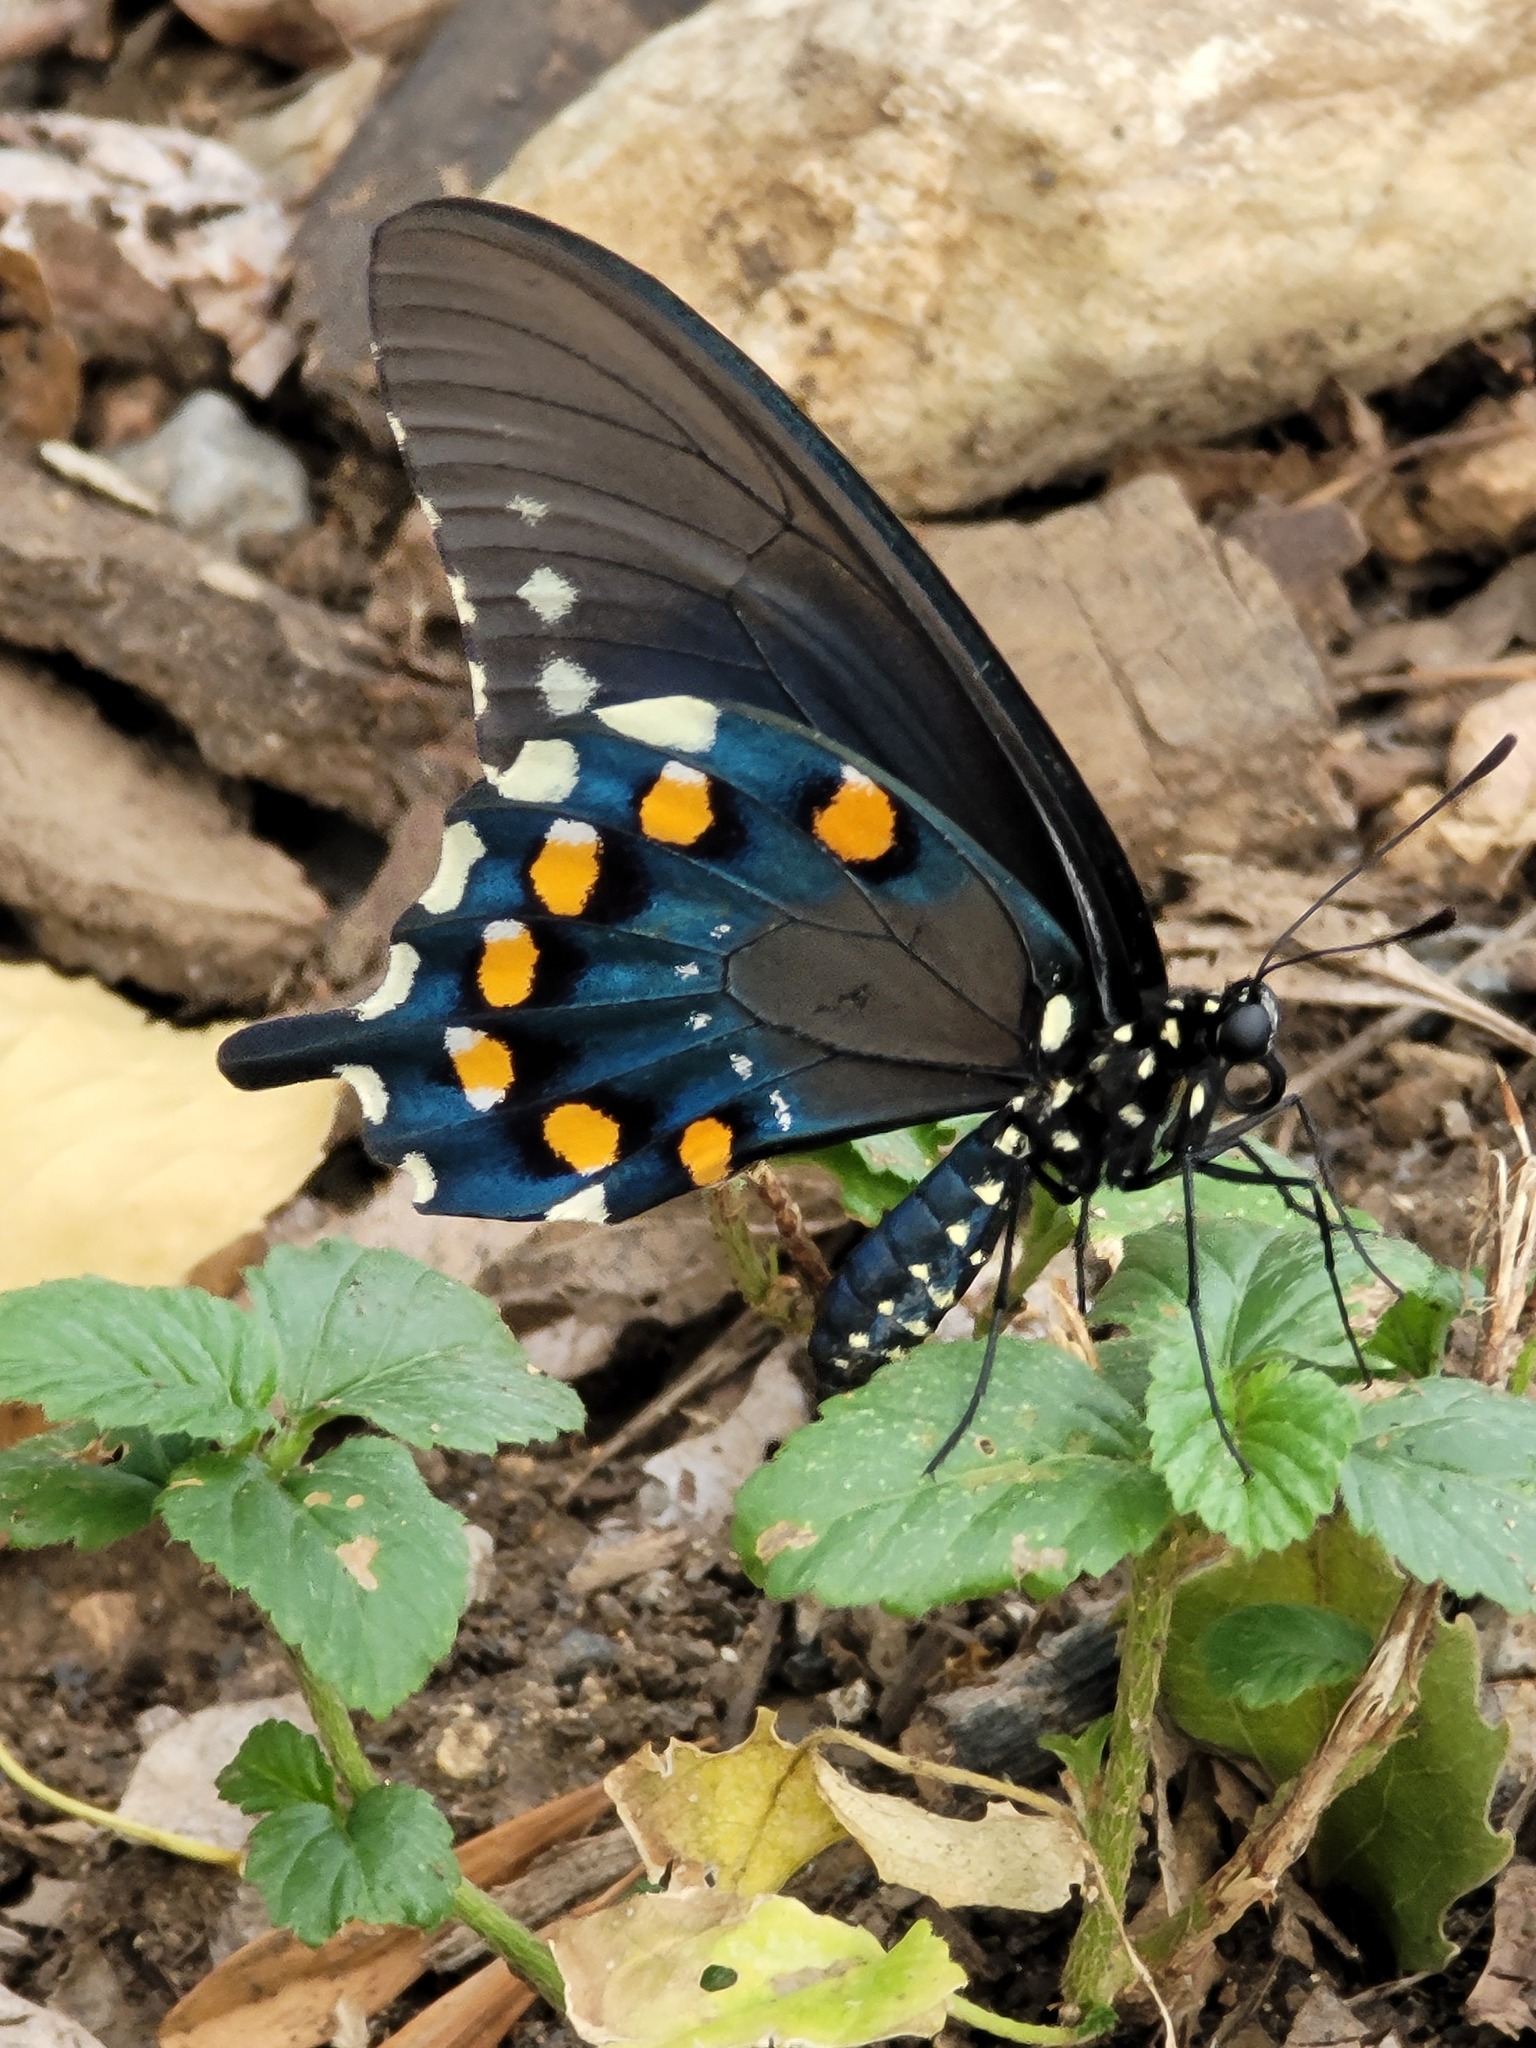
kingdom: Animalia
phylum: Arthropoda
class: Insecta
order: Lepidoptera
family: Papilionidae
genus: Battus
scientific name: Battus philenor
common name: Pipevine swallowtail
